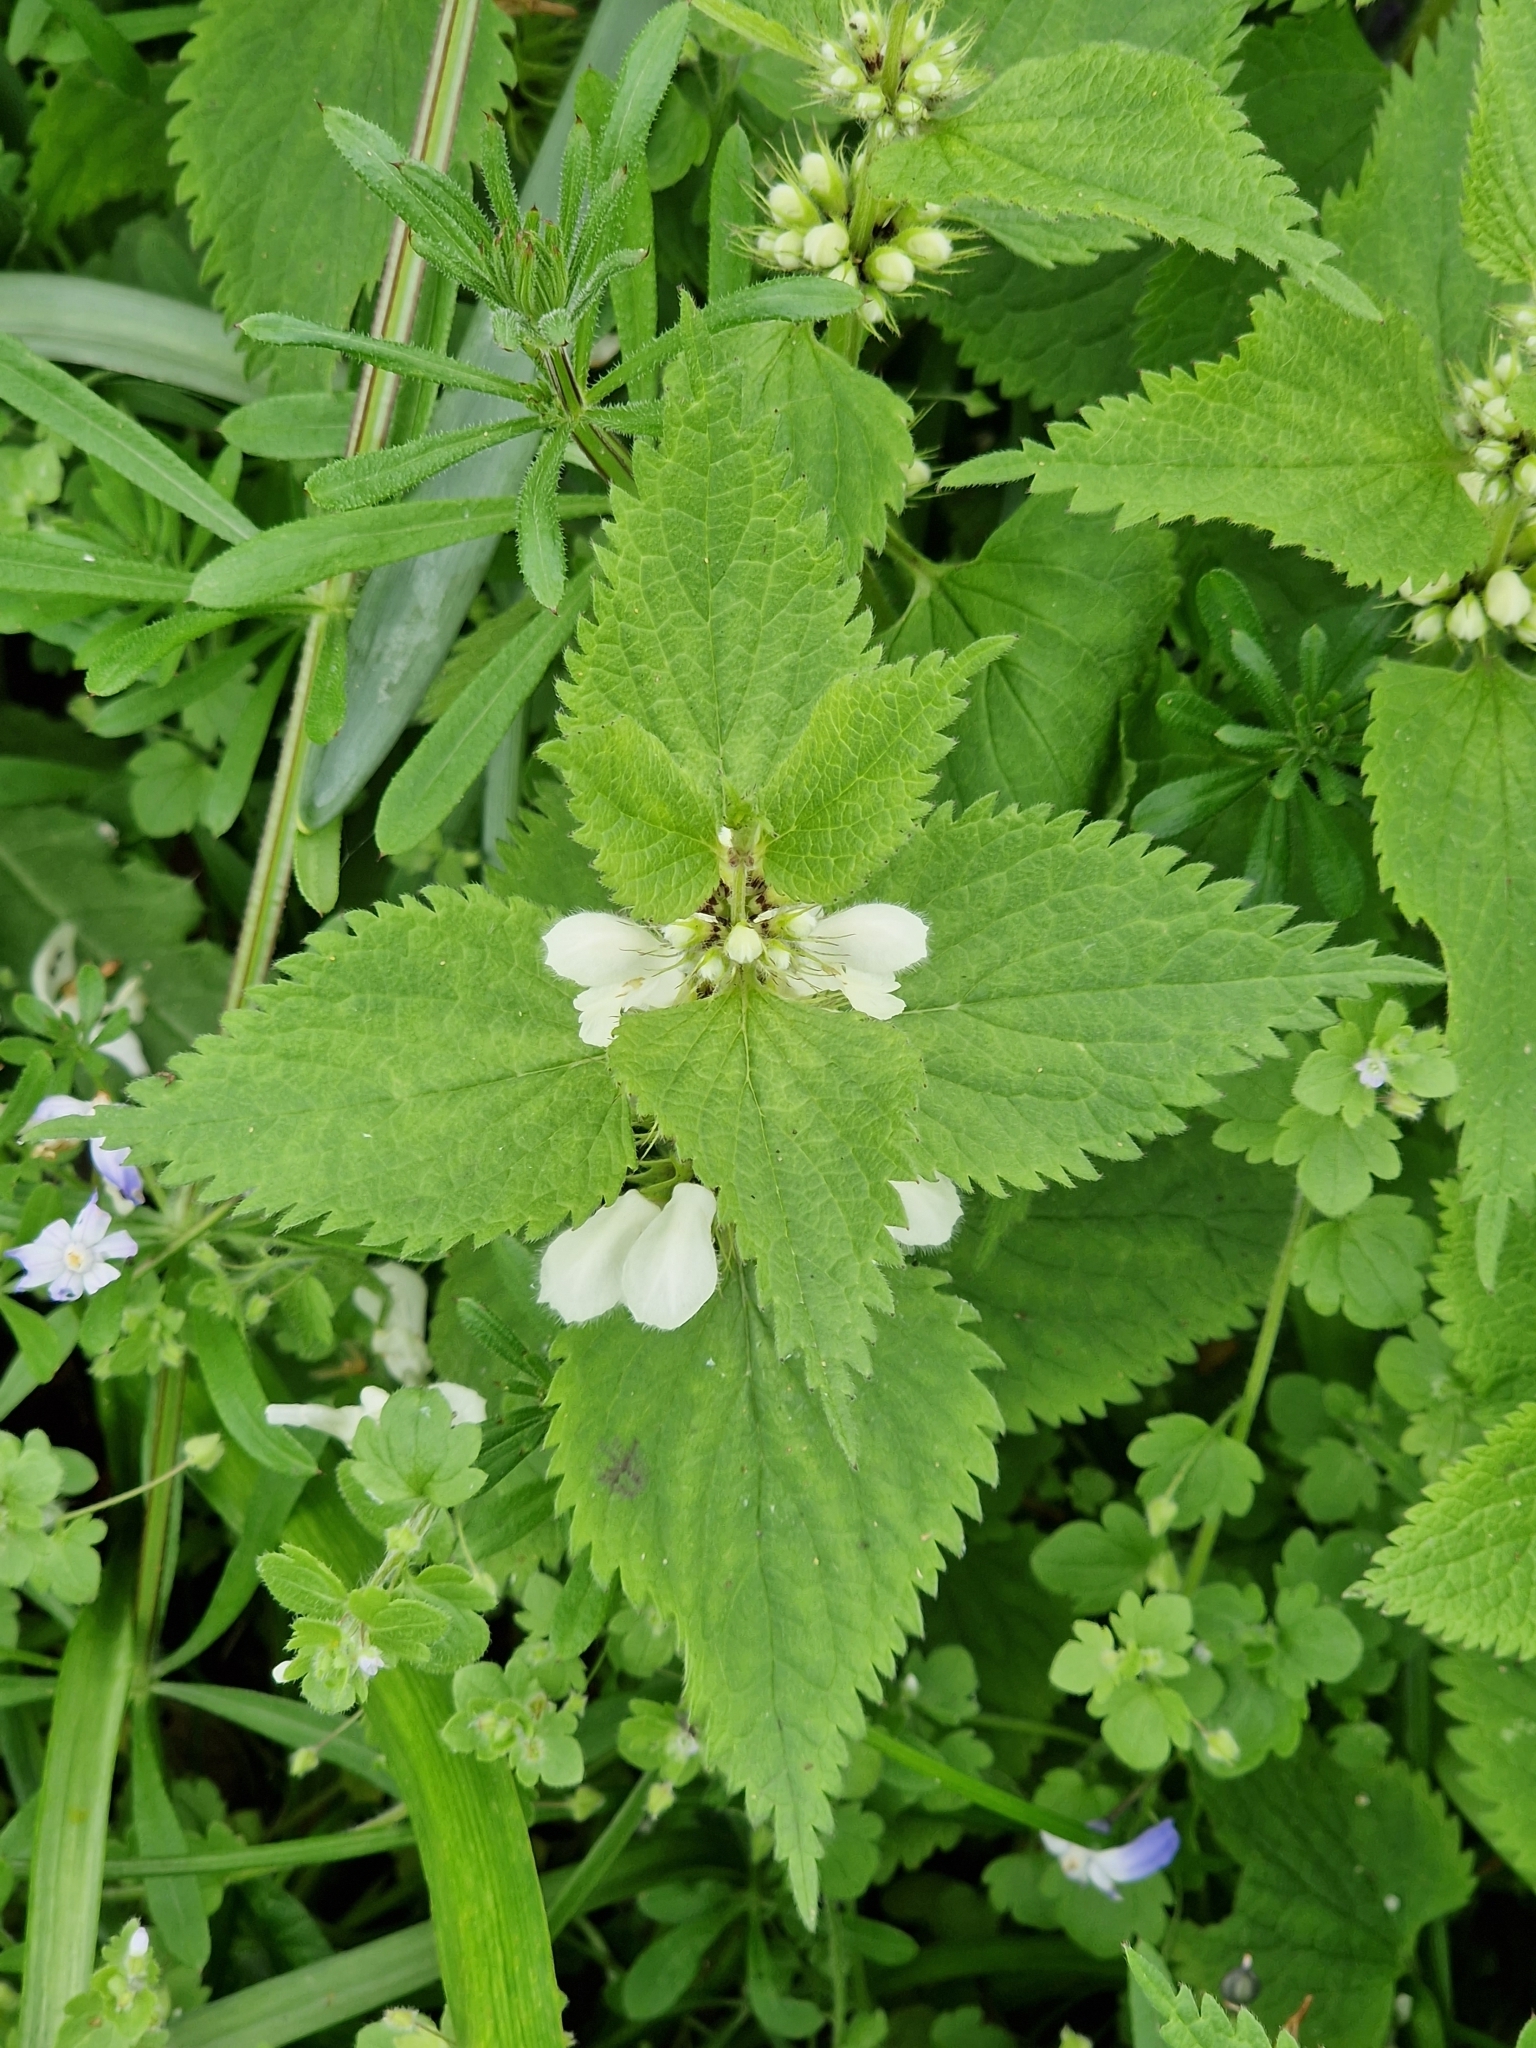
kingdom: Plantae
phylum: Tracheophyta
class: Magnoliopsida
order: Lamiales
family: Lamiaceae
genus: Lamium
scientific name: Lamium album
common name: White dead-nettle
